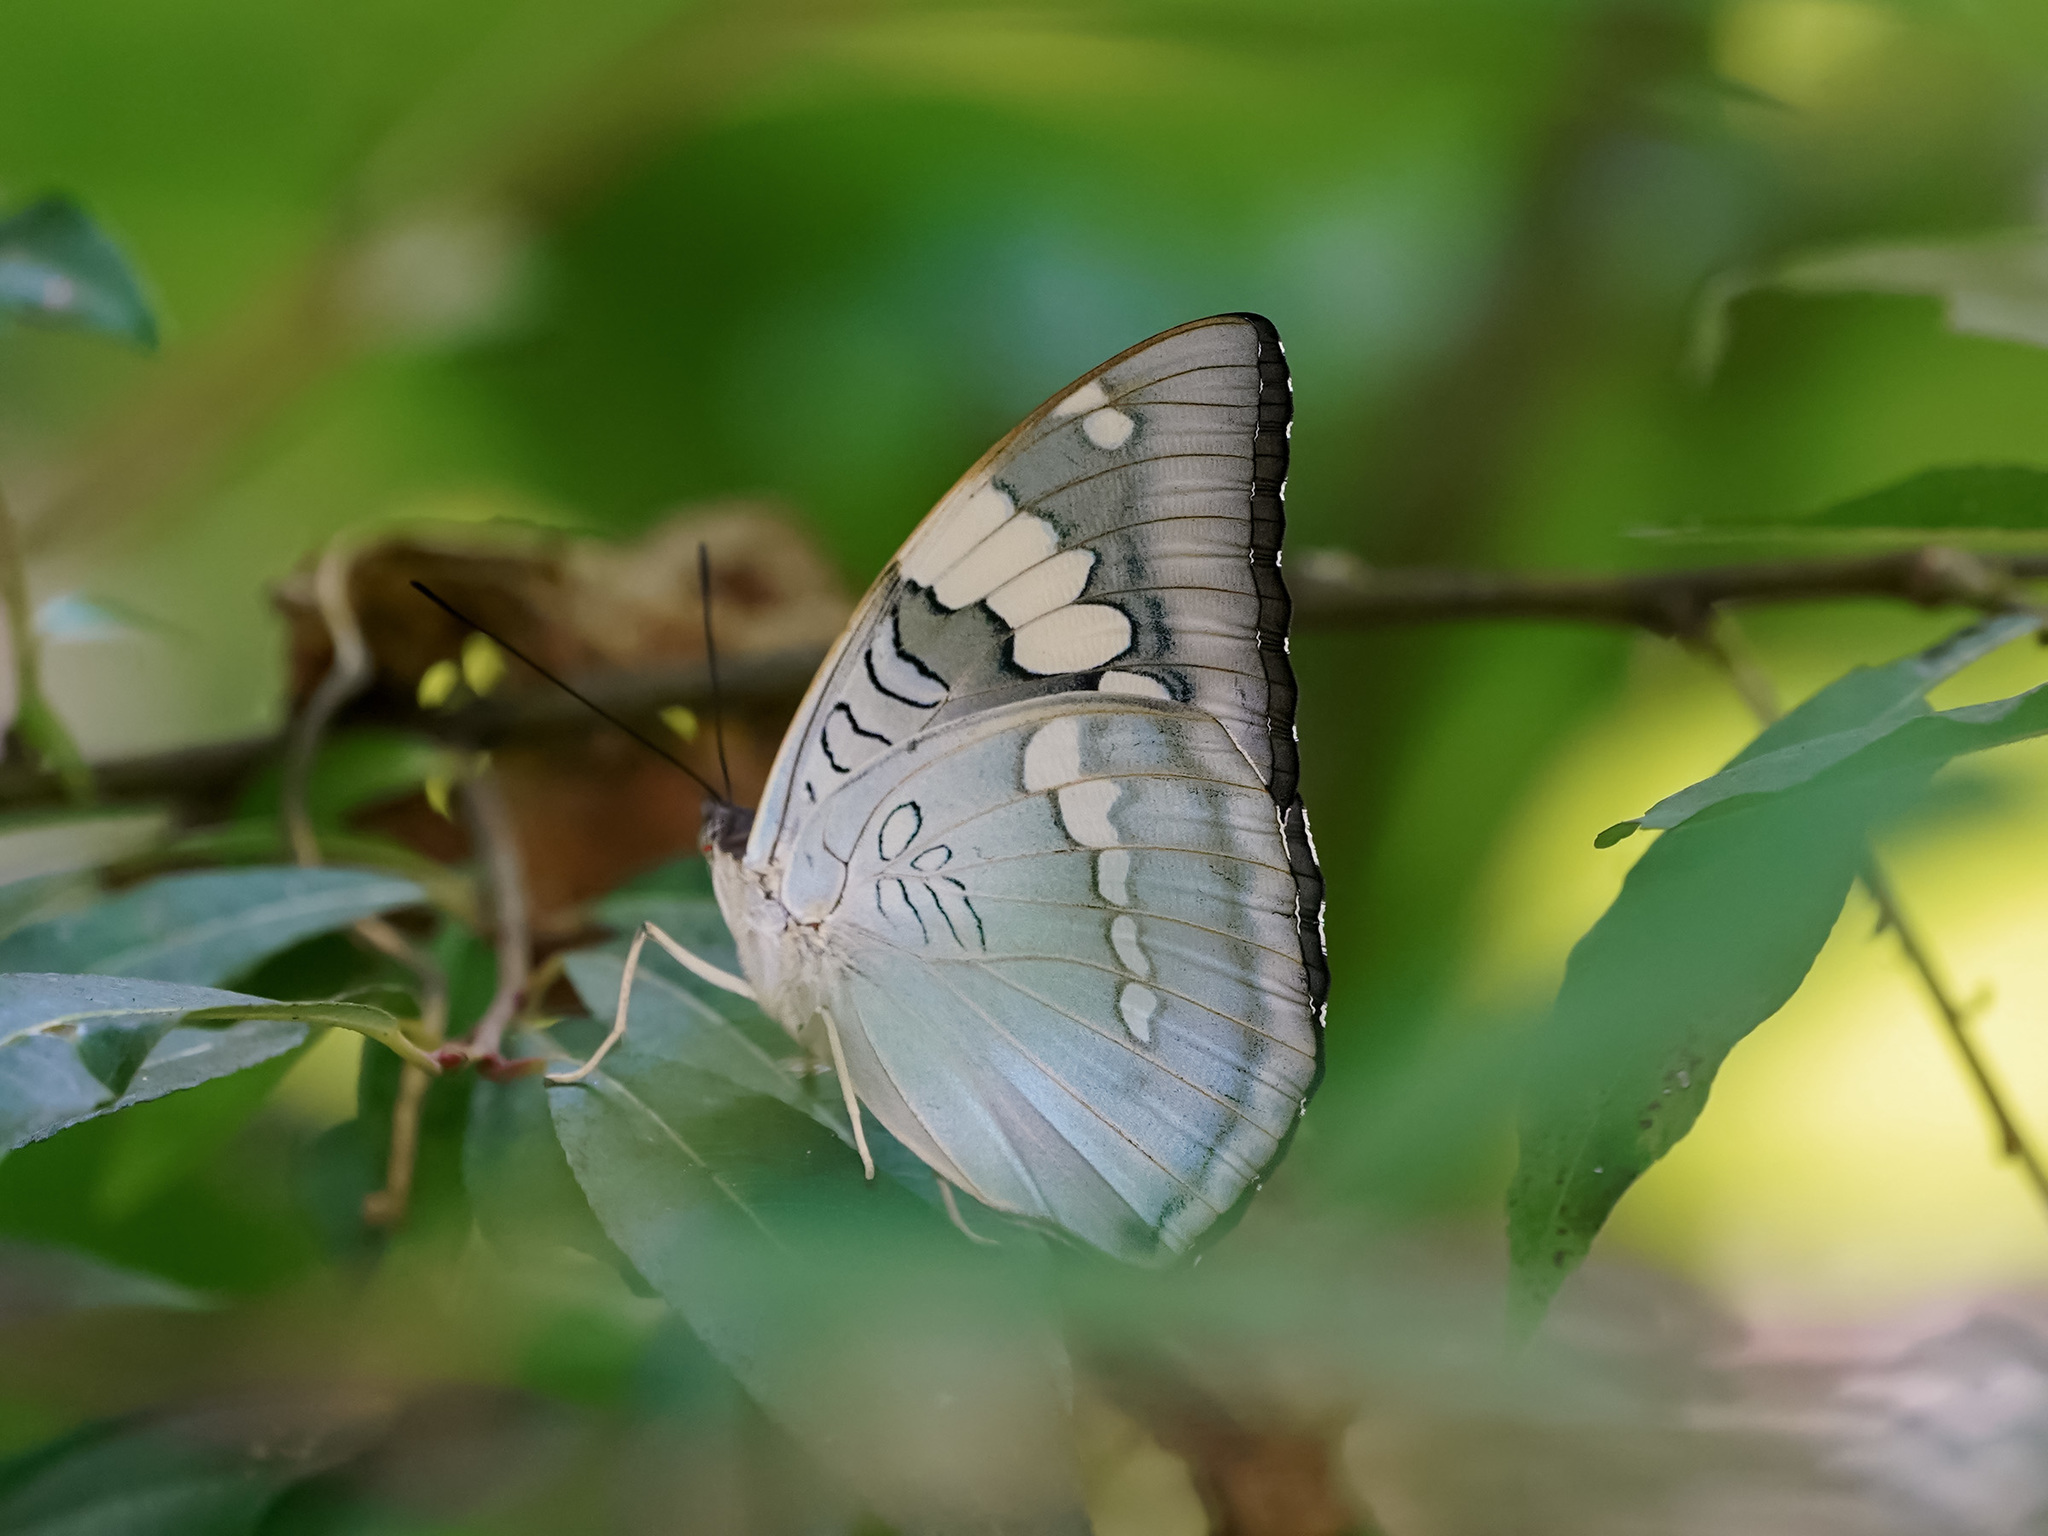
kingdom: Animalia
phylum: Arthropoda
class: Insecta
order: Lepidoptera
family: Nymphalidae
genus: Euthalia
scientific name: Euthalia patala
